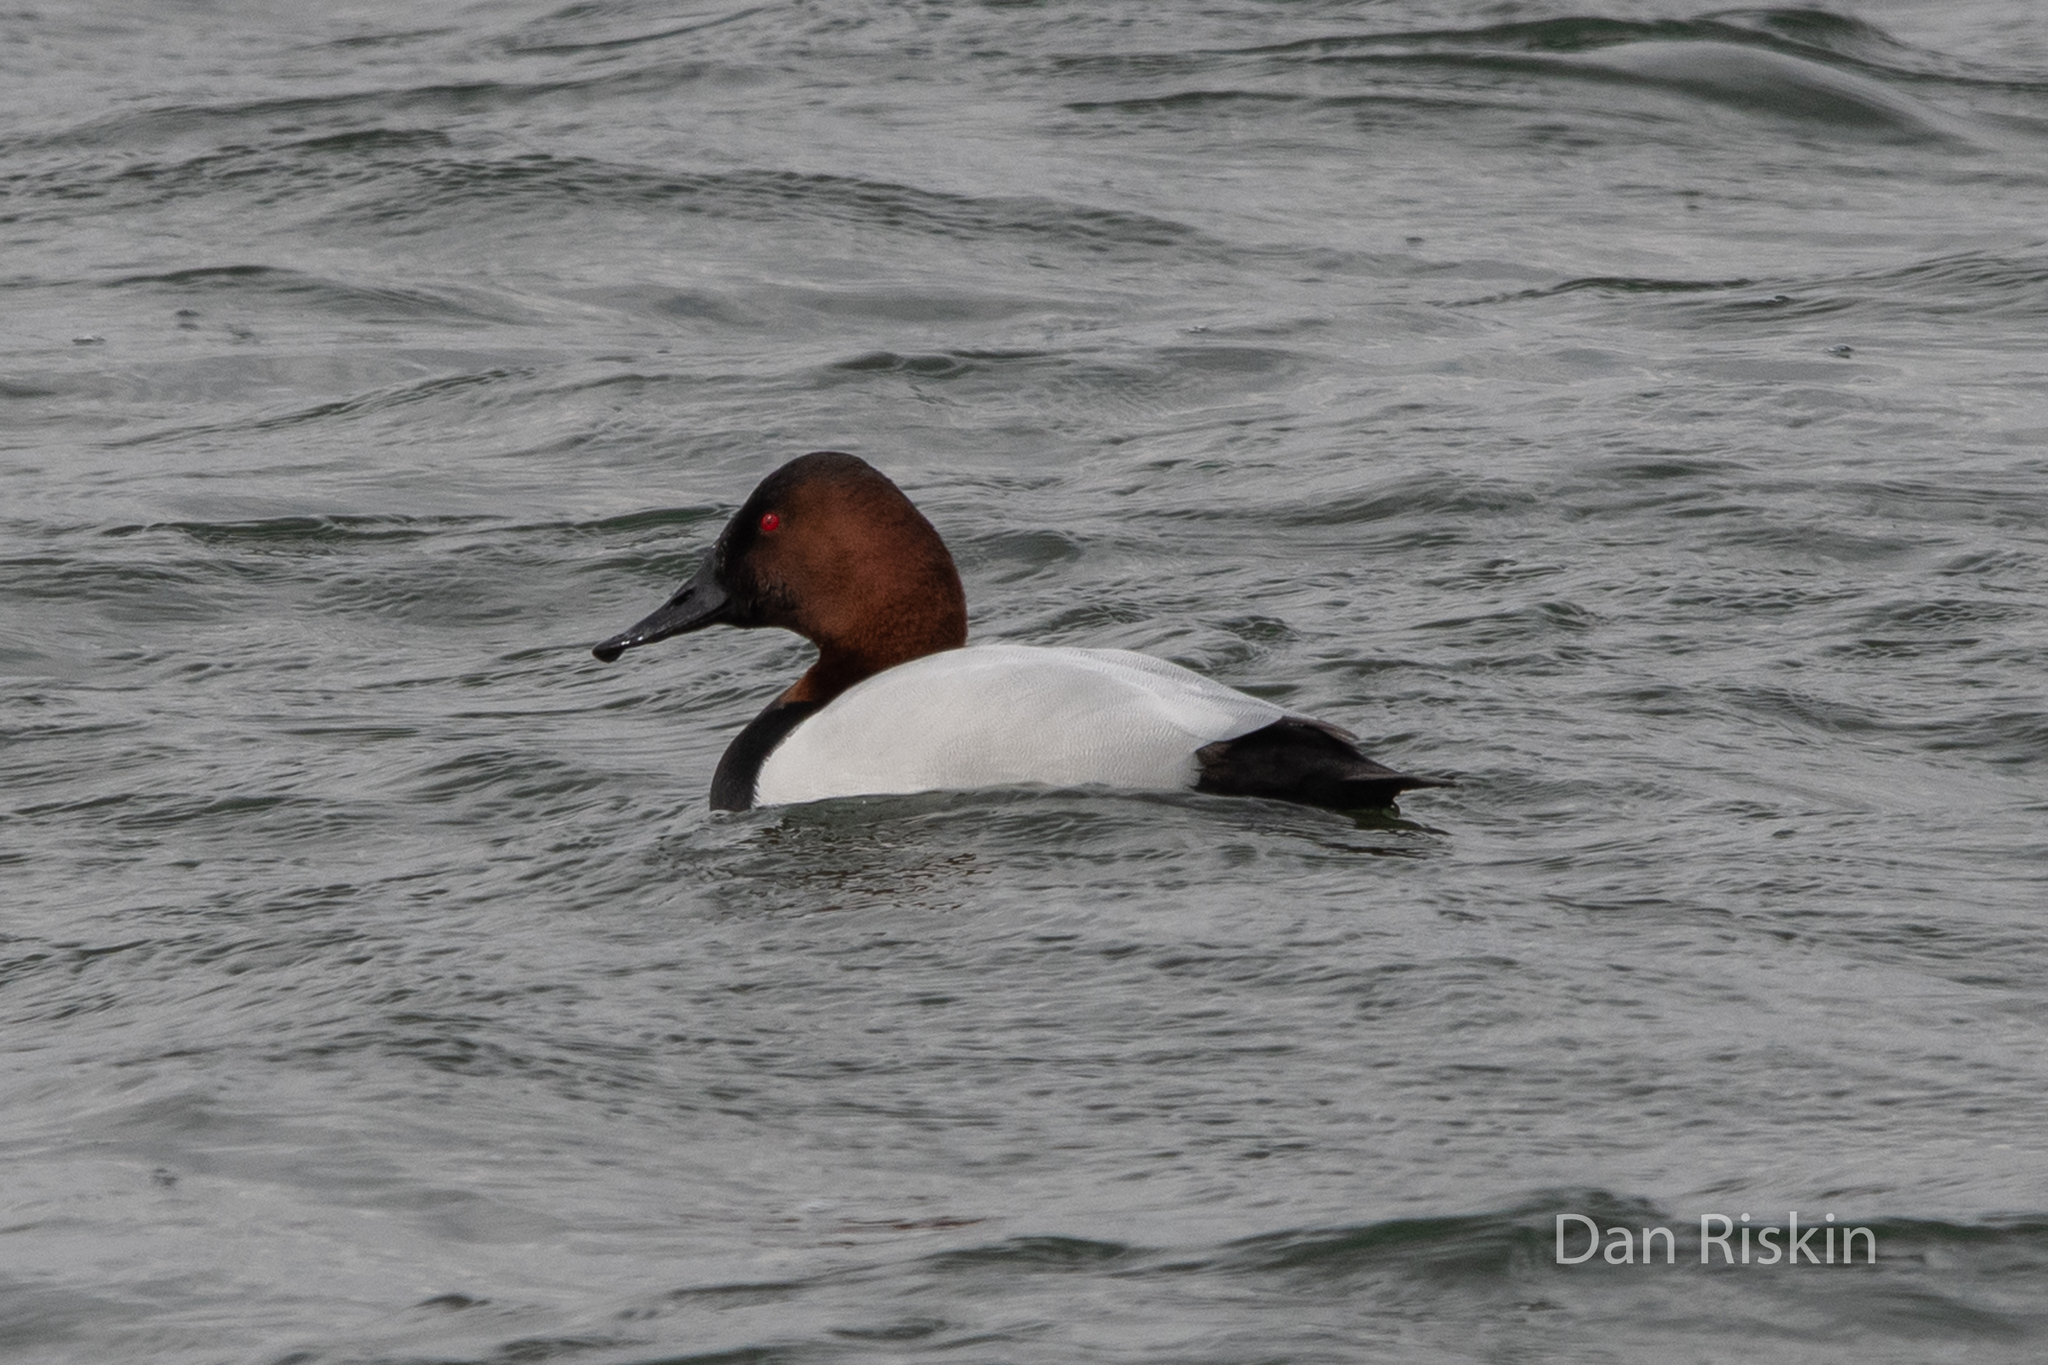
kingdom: Animalia
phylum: Chordata
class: Aves
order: Anseriformes
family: Anatidae
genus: Aythya
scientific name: Aythya valisineria
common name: Canvasback
